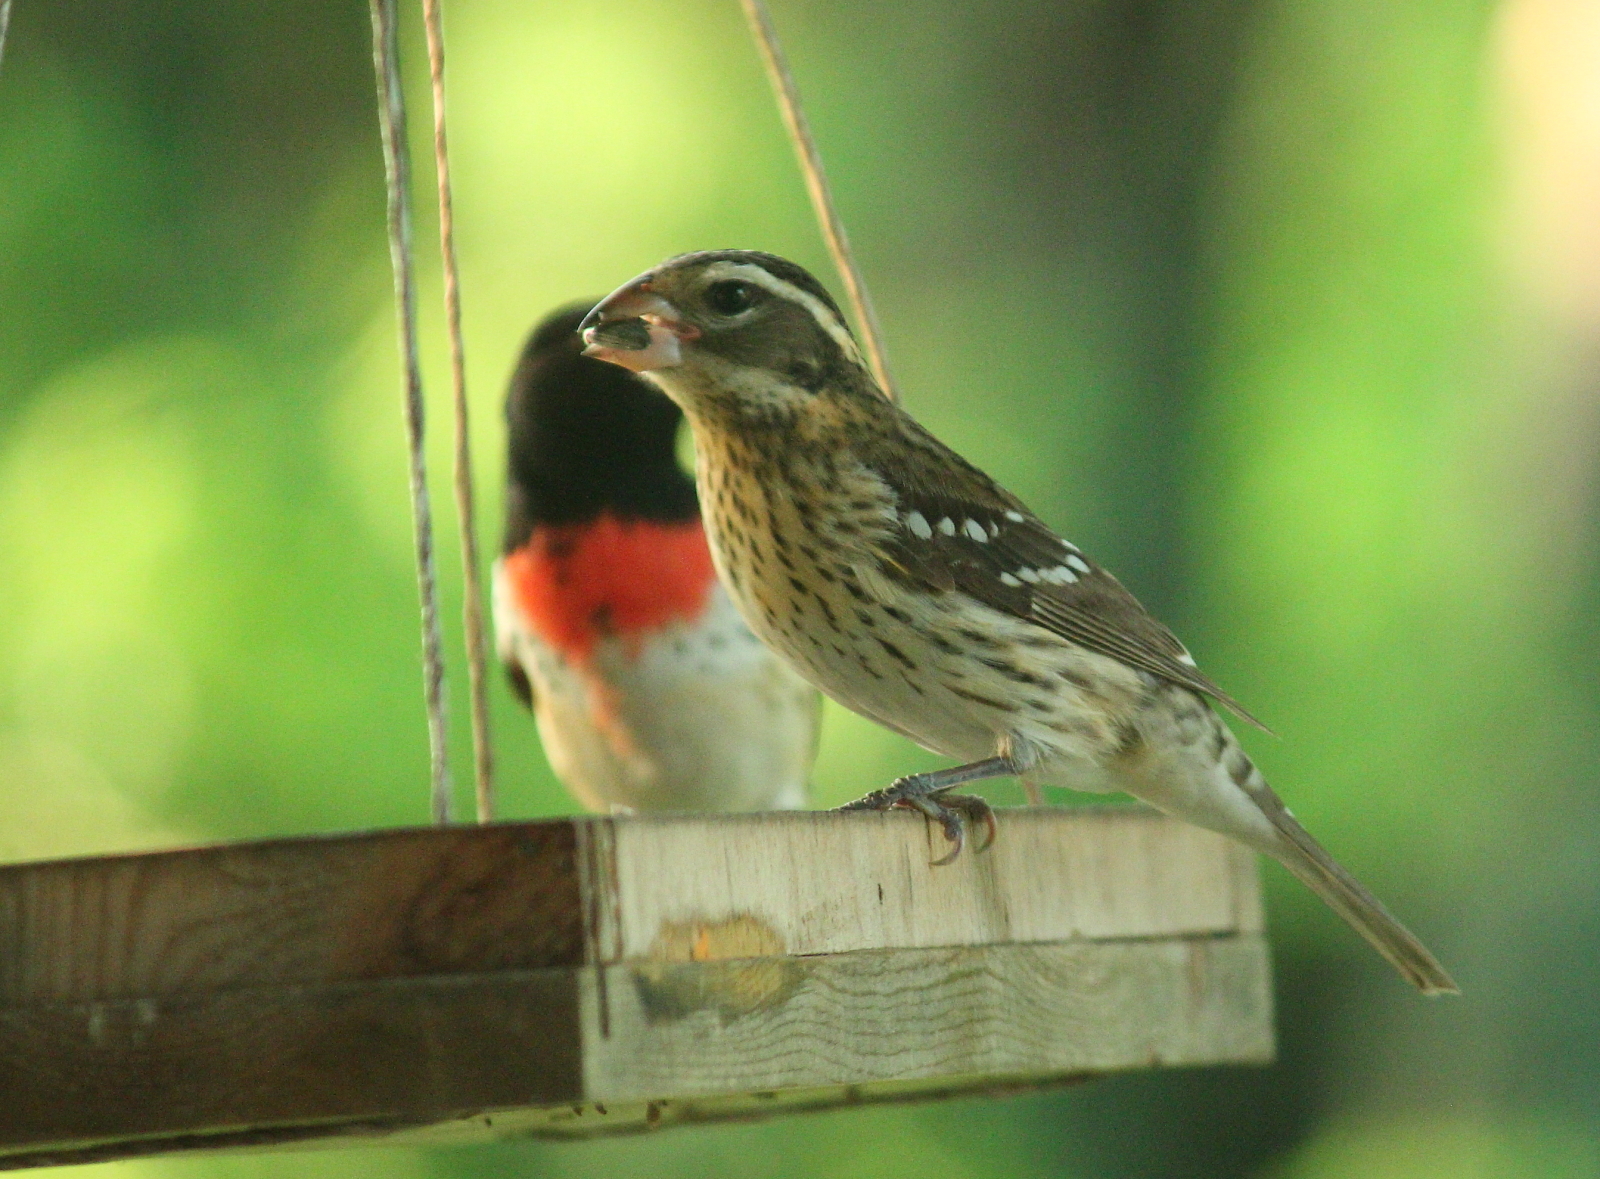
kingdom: Animalia
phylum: Chordata
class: Aves
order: Passeriformes
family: Cardinalidae
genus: Pheucticus
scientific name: Pheucticus ludovicianus
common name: Rose-breasted grosbeak
